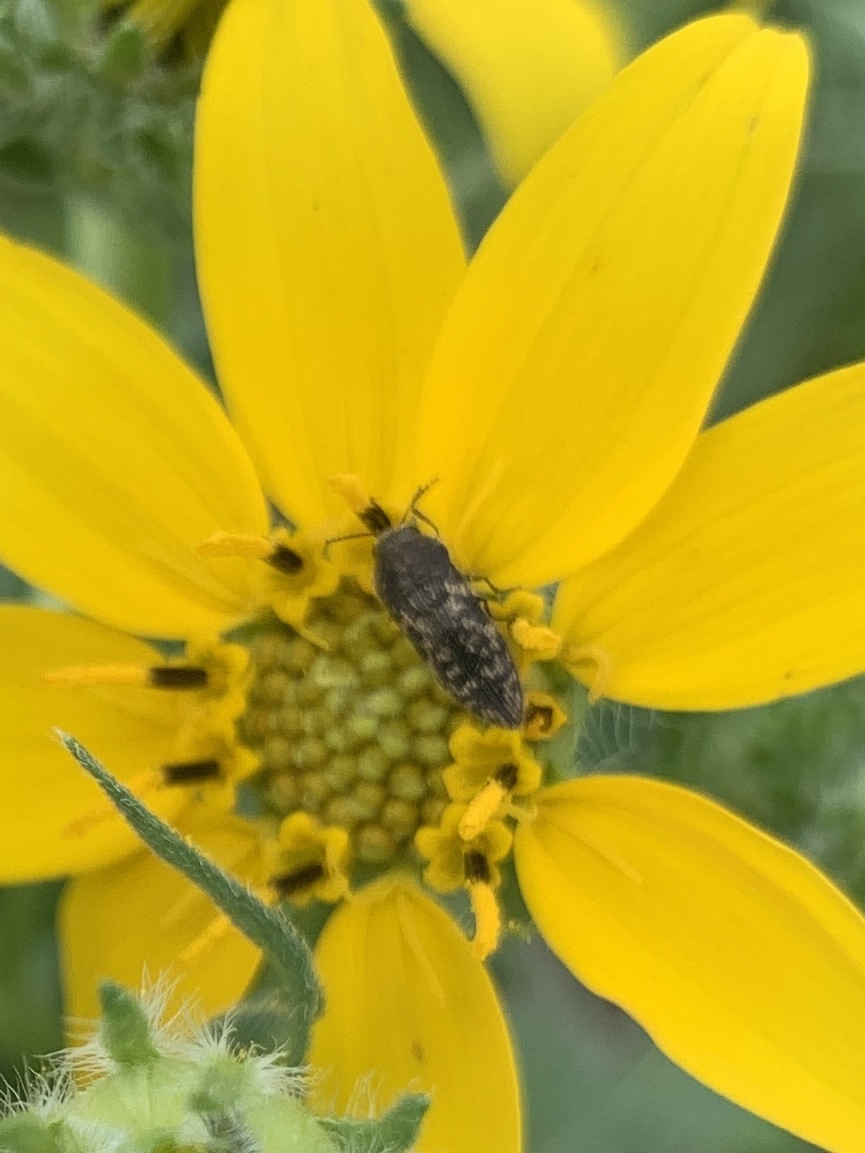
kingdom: Animalia
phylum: Arthropoda
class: Insecta
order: Coleoptera
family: Buprestidae
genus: Acmaeodera
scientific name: Acmaeodera neglecta
